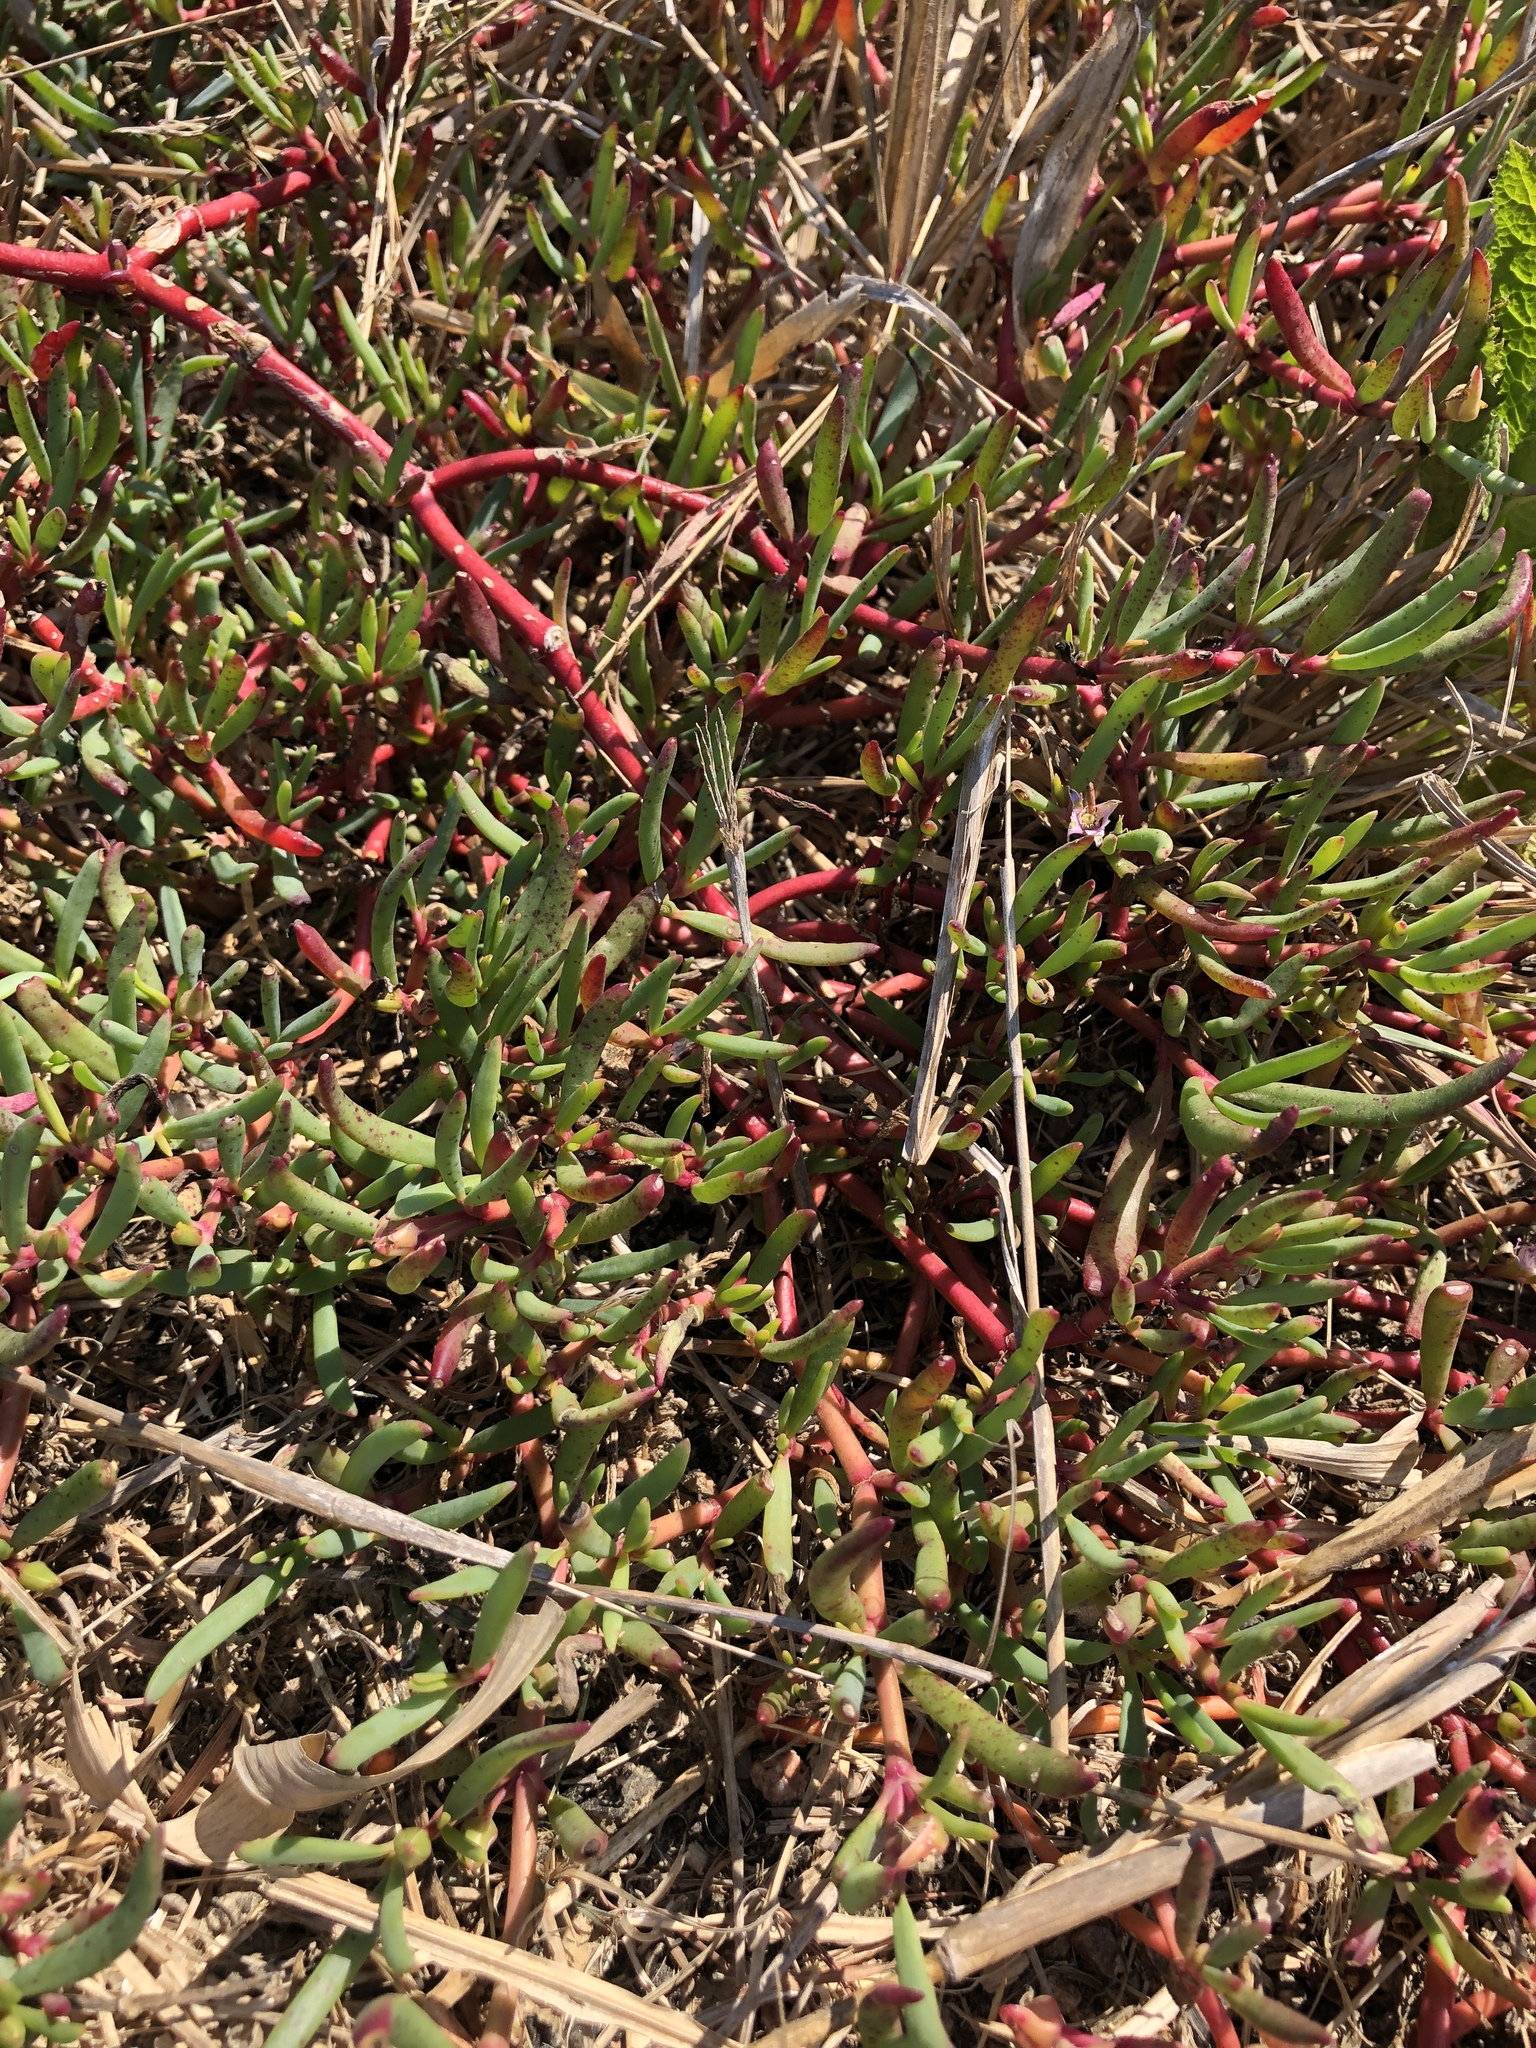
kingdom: Plantae
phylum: Tracheophyta
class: Magnoliopsida
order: Caryophyllales
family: Aizoaceae
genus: Sesuvium
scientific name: Sesuvium portulacastrum
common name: Sea-purslane
